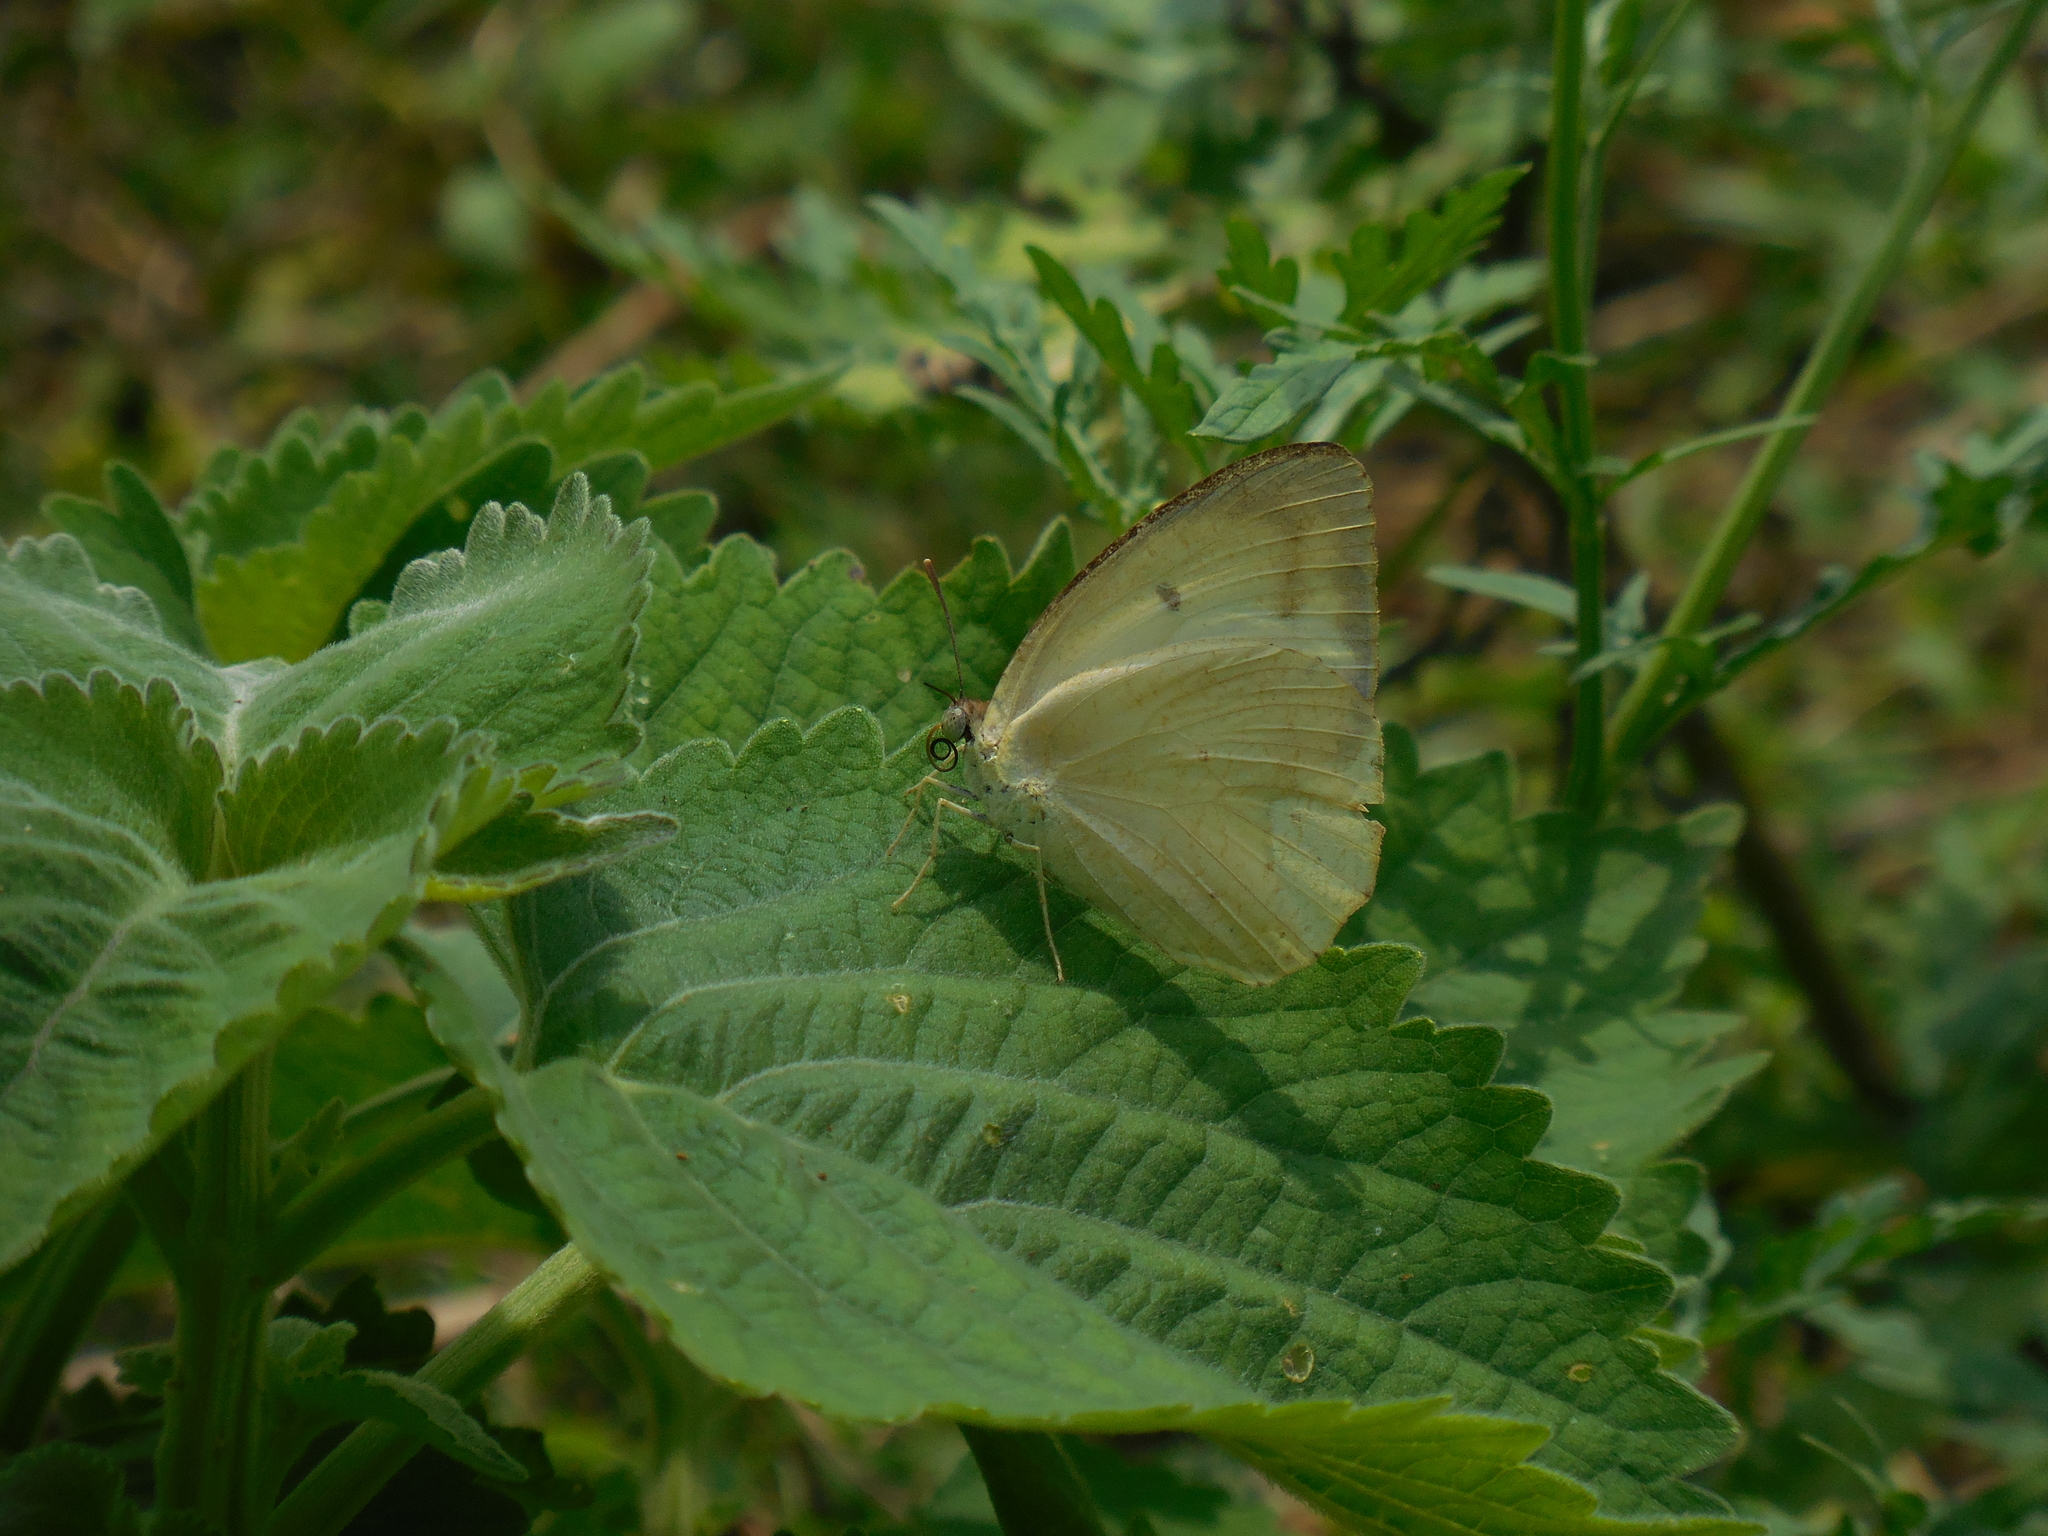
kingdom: Animalia
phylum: Arthropoda
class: Insecta
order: Lepidoptera
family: Pieridae
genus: Catopsilia
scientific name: Catopsilia pomona
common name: Common emigrant
